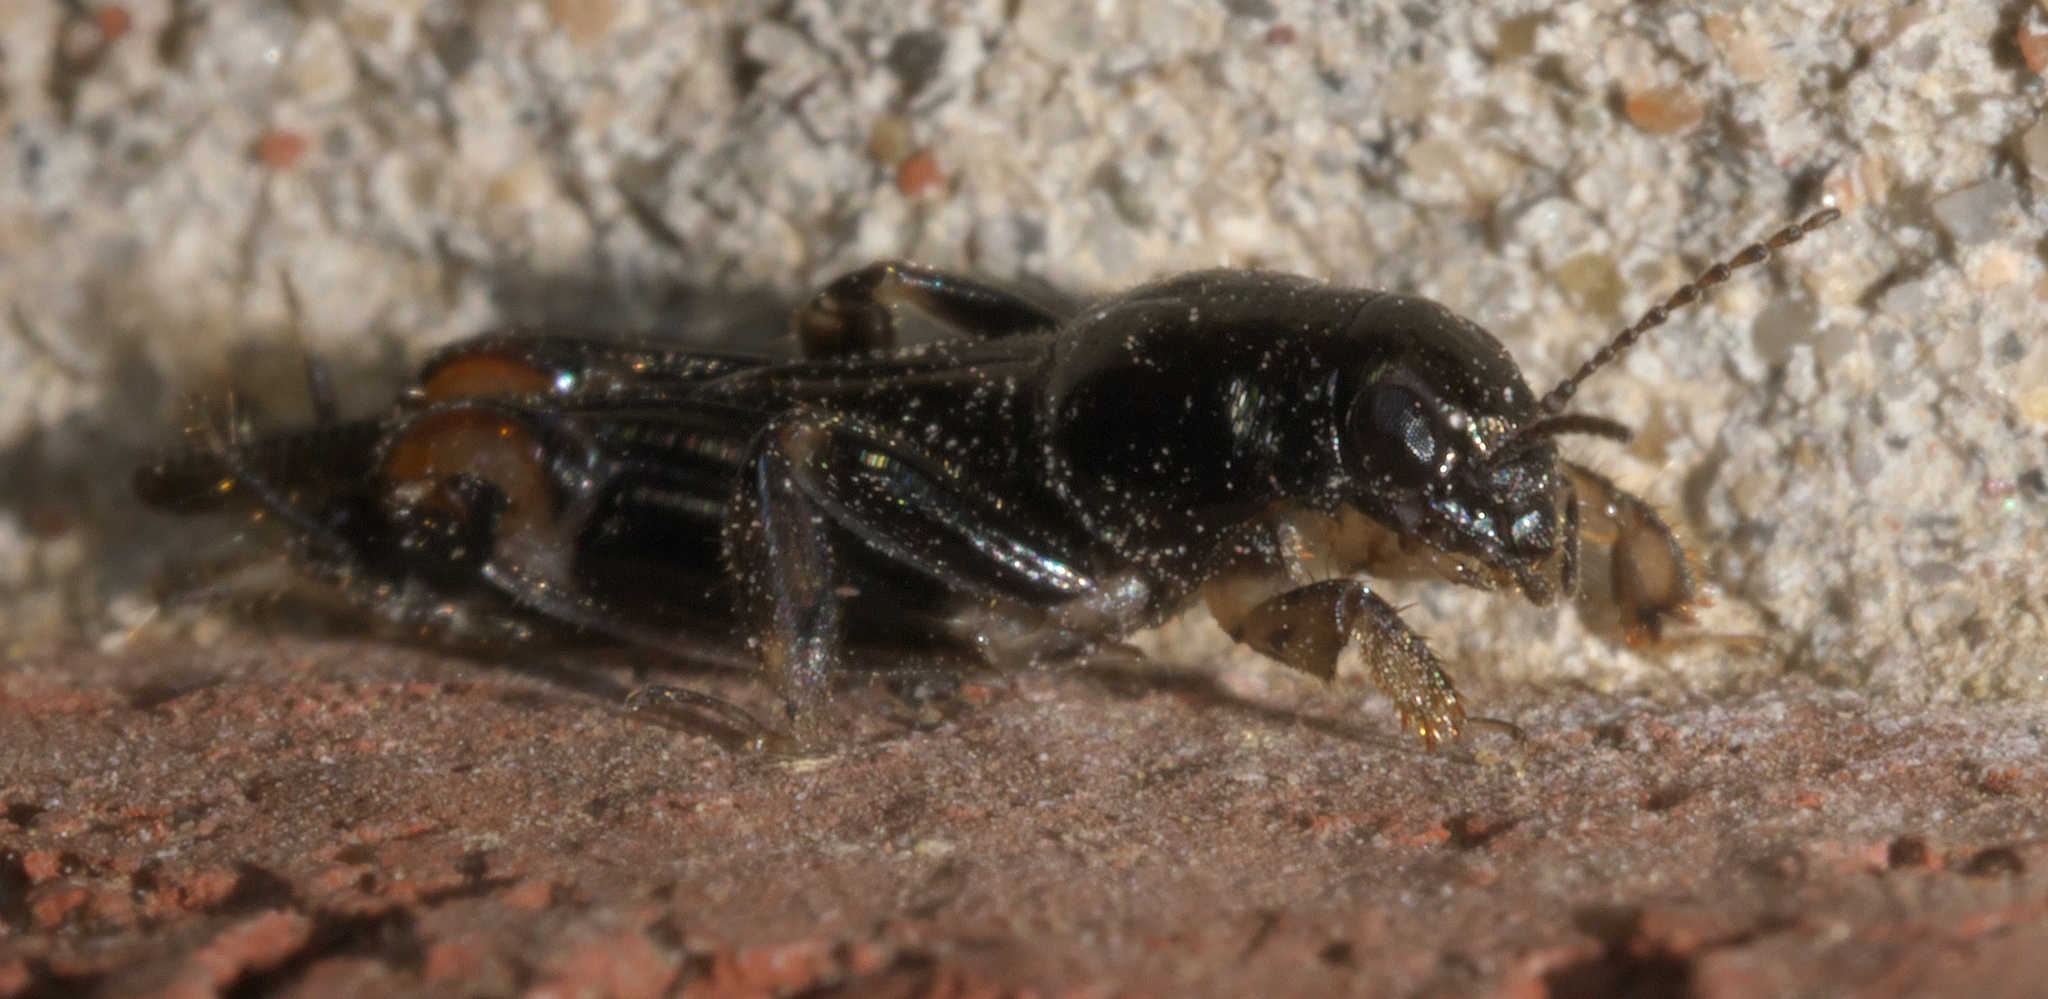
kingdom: Animalia
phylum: Arthropoda
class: Insecta
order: Orthoptera
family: Tridactylidae
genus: Neotridactylus
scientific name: Neotridactylus apicialis
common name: Larger pygmy locust
